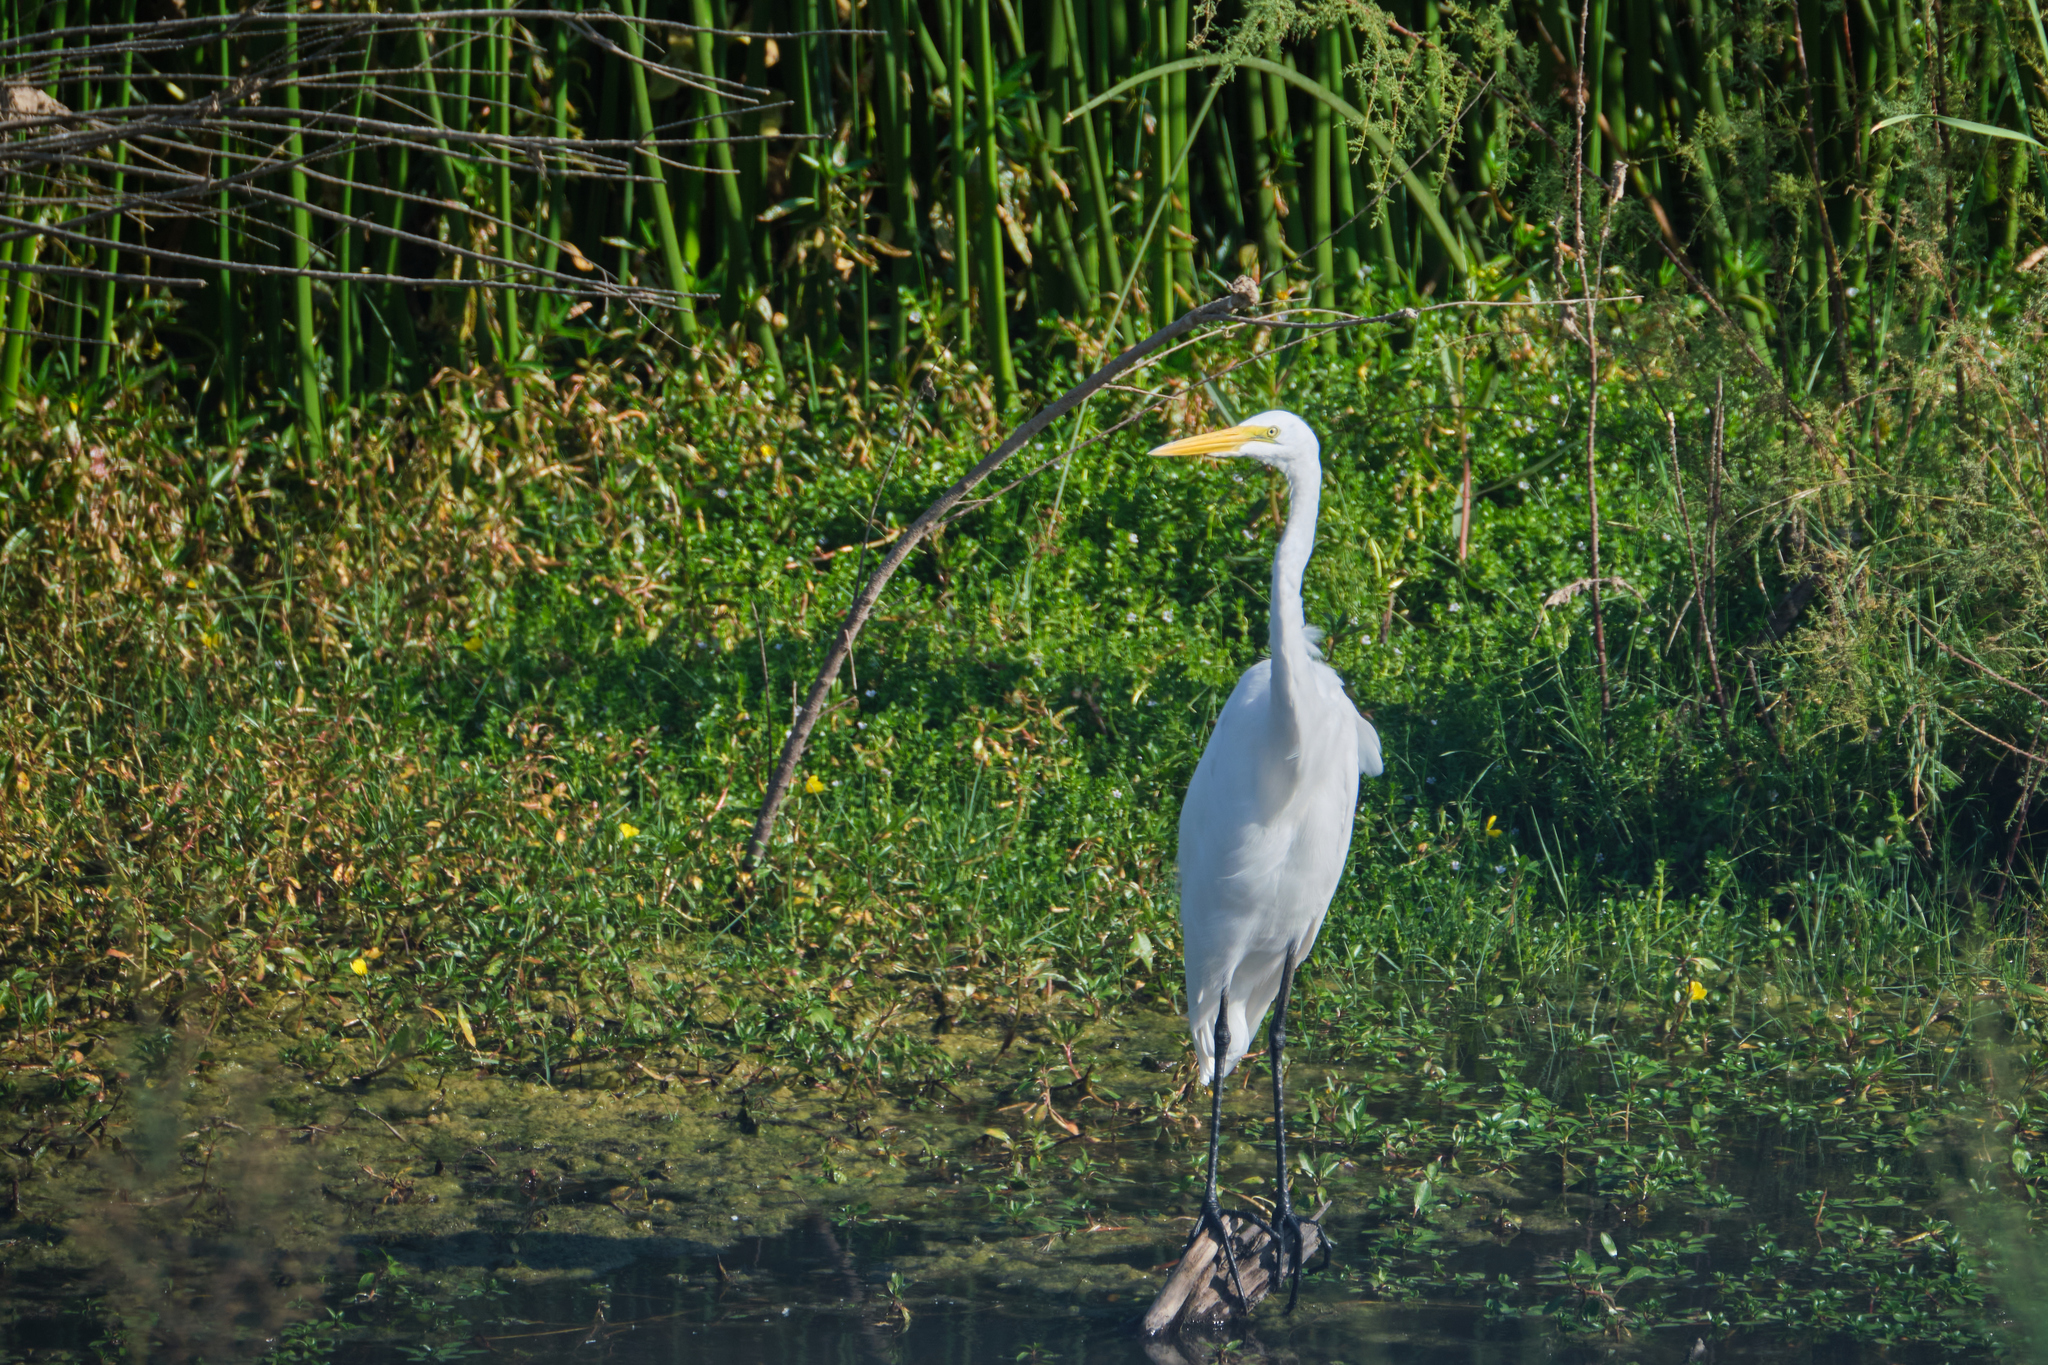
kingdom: Animalia
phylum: Chordata
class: Aves
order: Pelecaniformes
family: Ardeidae
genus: Ardea
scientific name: Ardea alba
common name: Great egret
